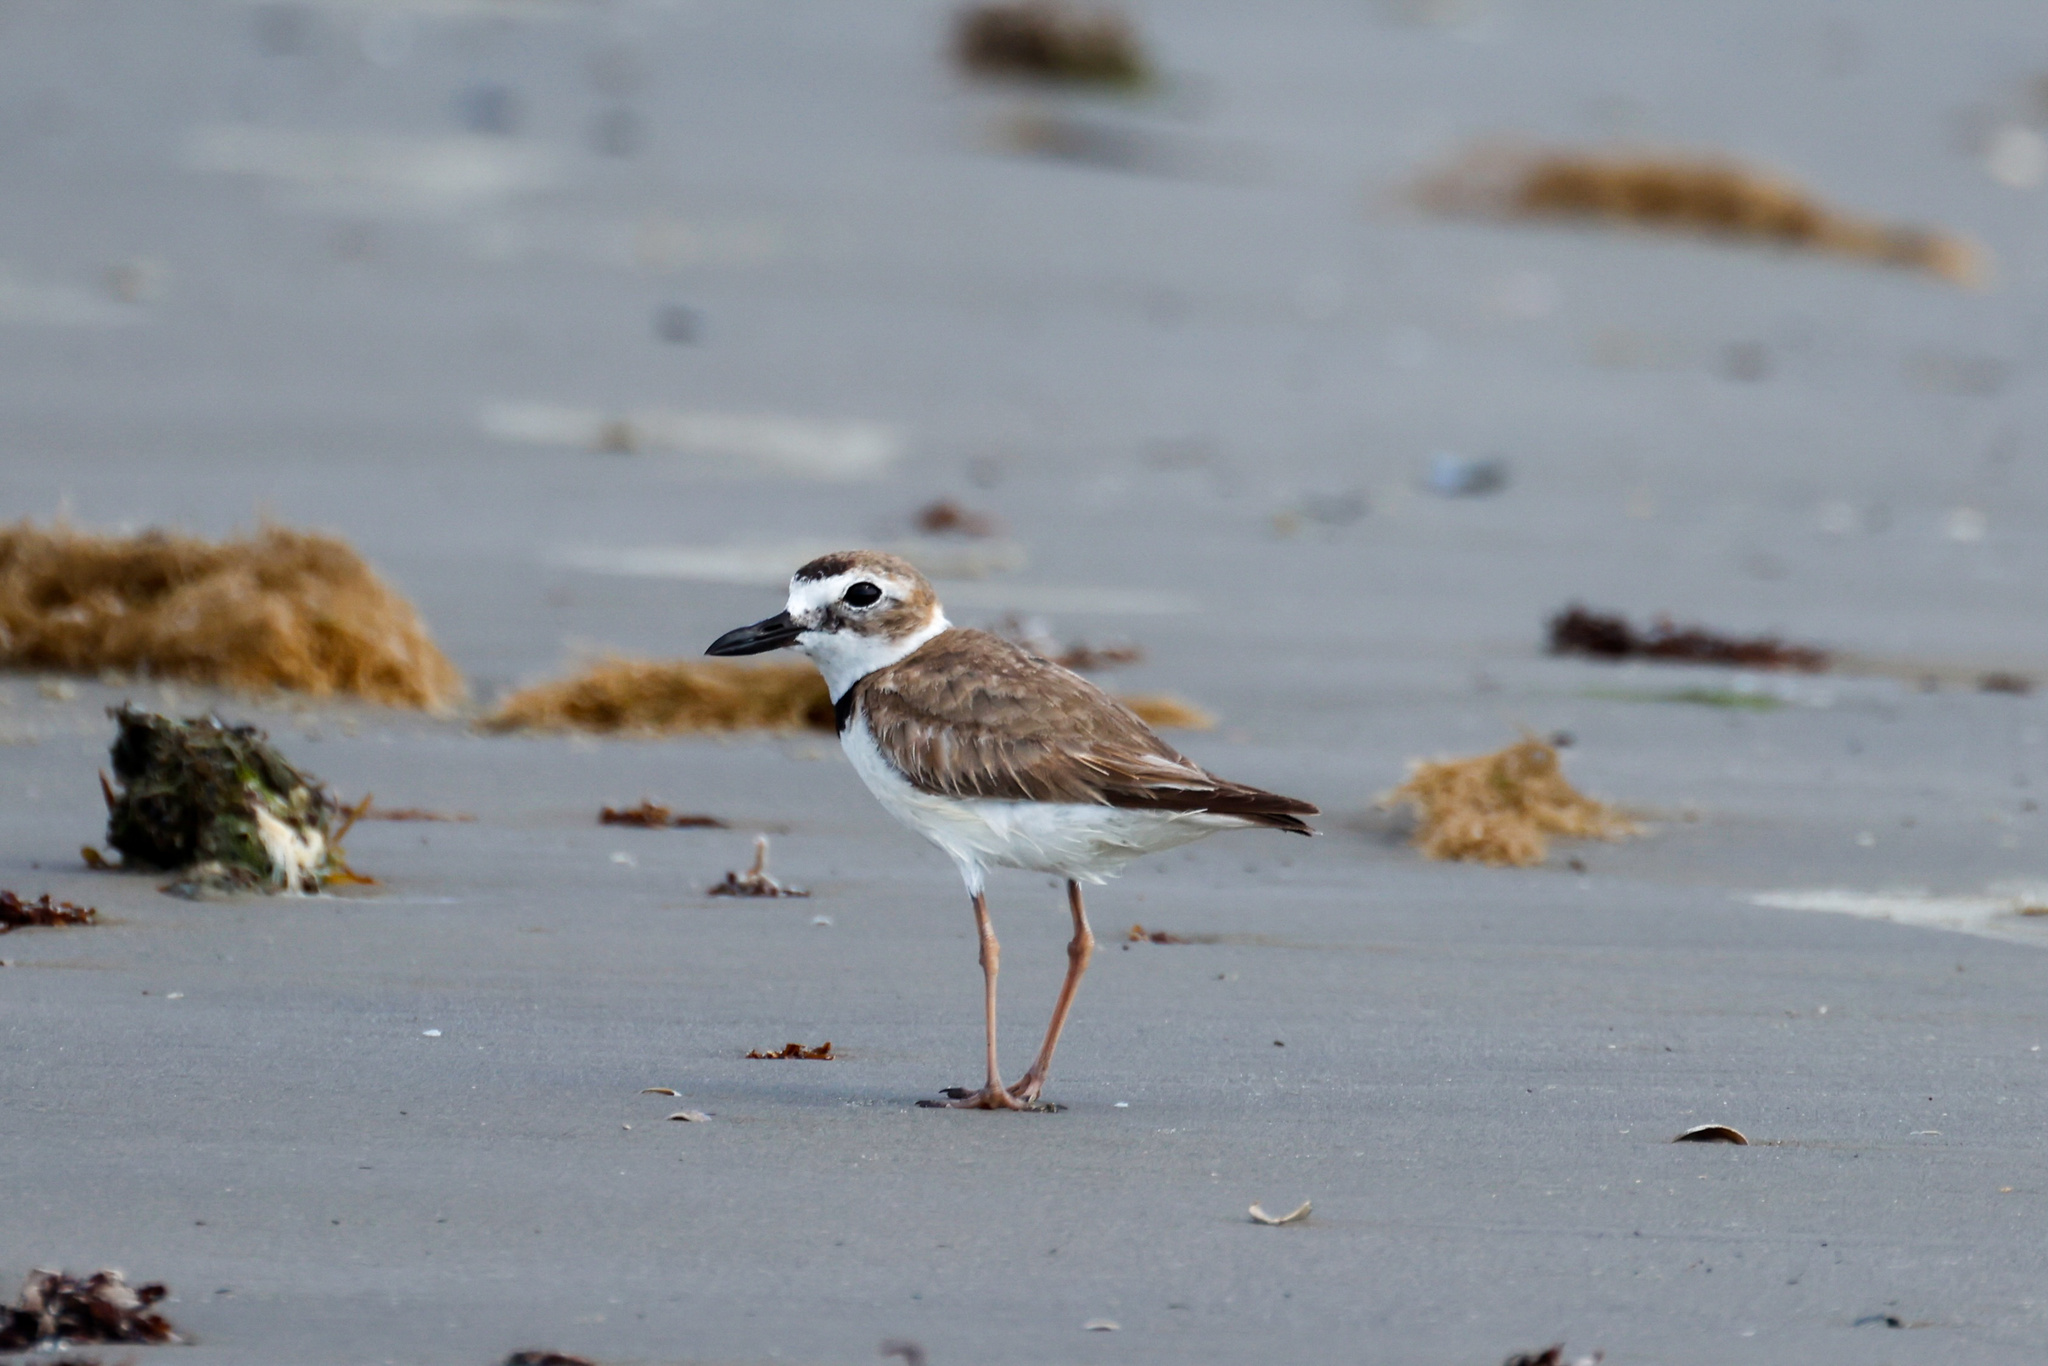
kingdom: Animalia
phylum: Chordata
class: Aves
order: Charadriiformes
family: Charadriidae
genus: Anarhynchus
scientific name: Anarhynchus
